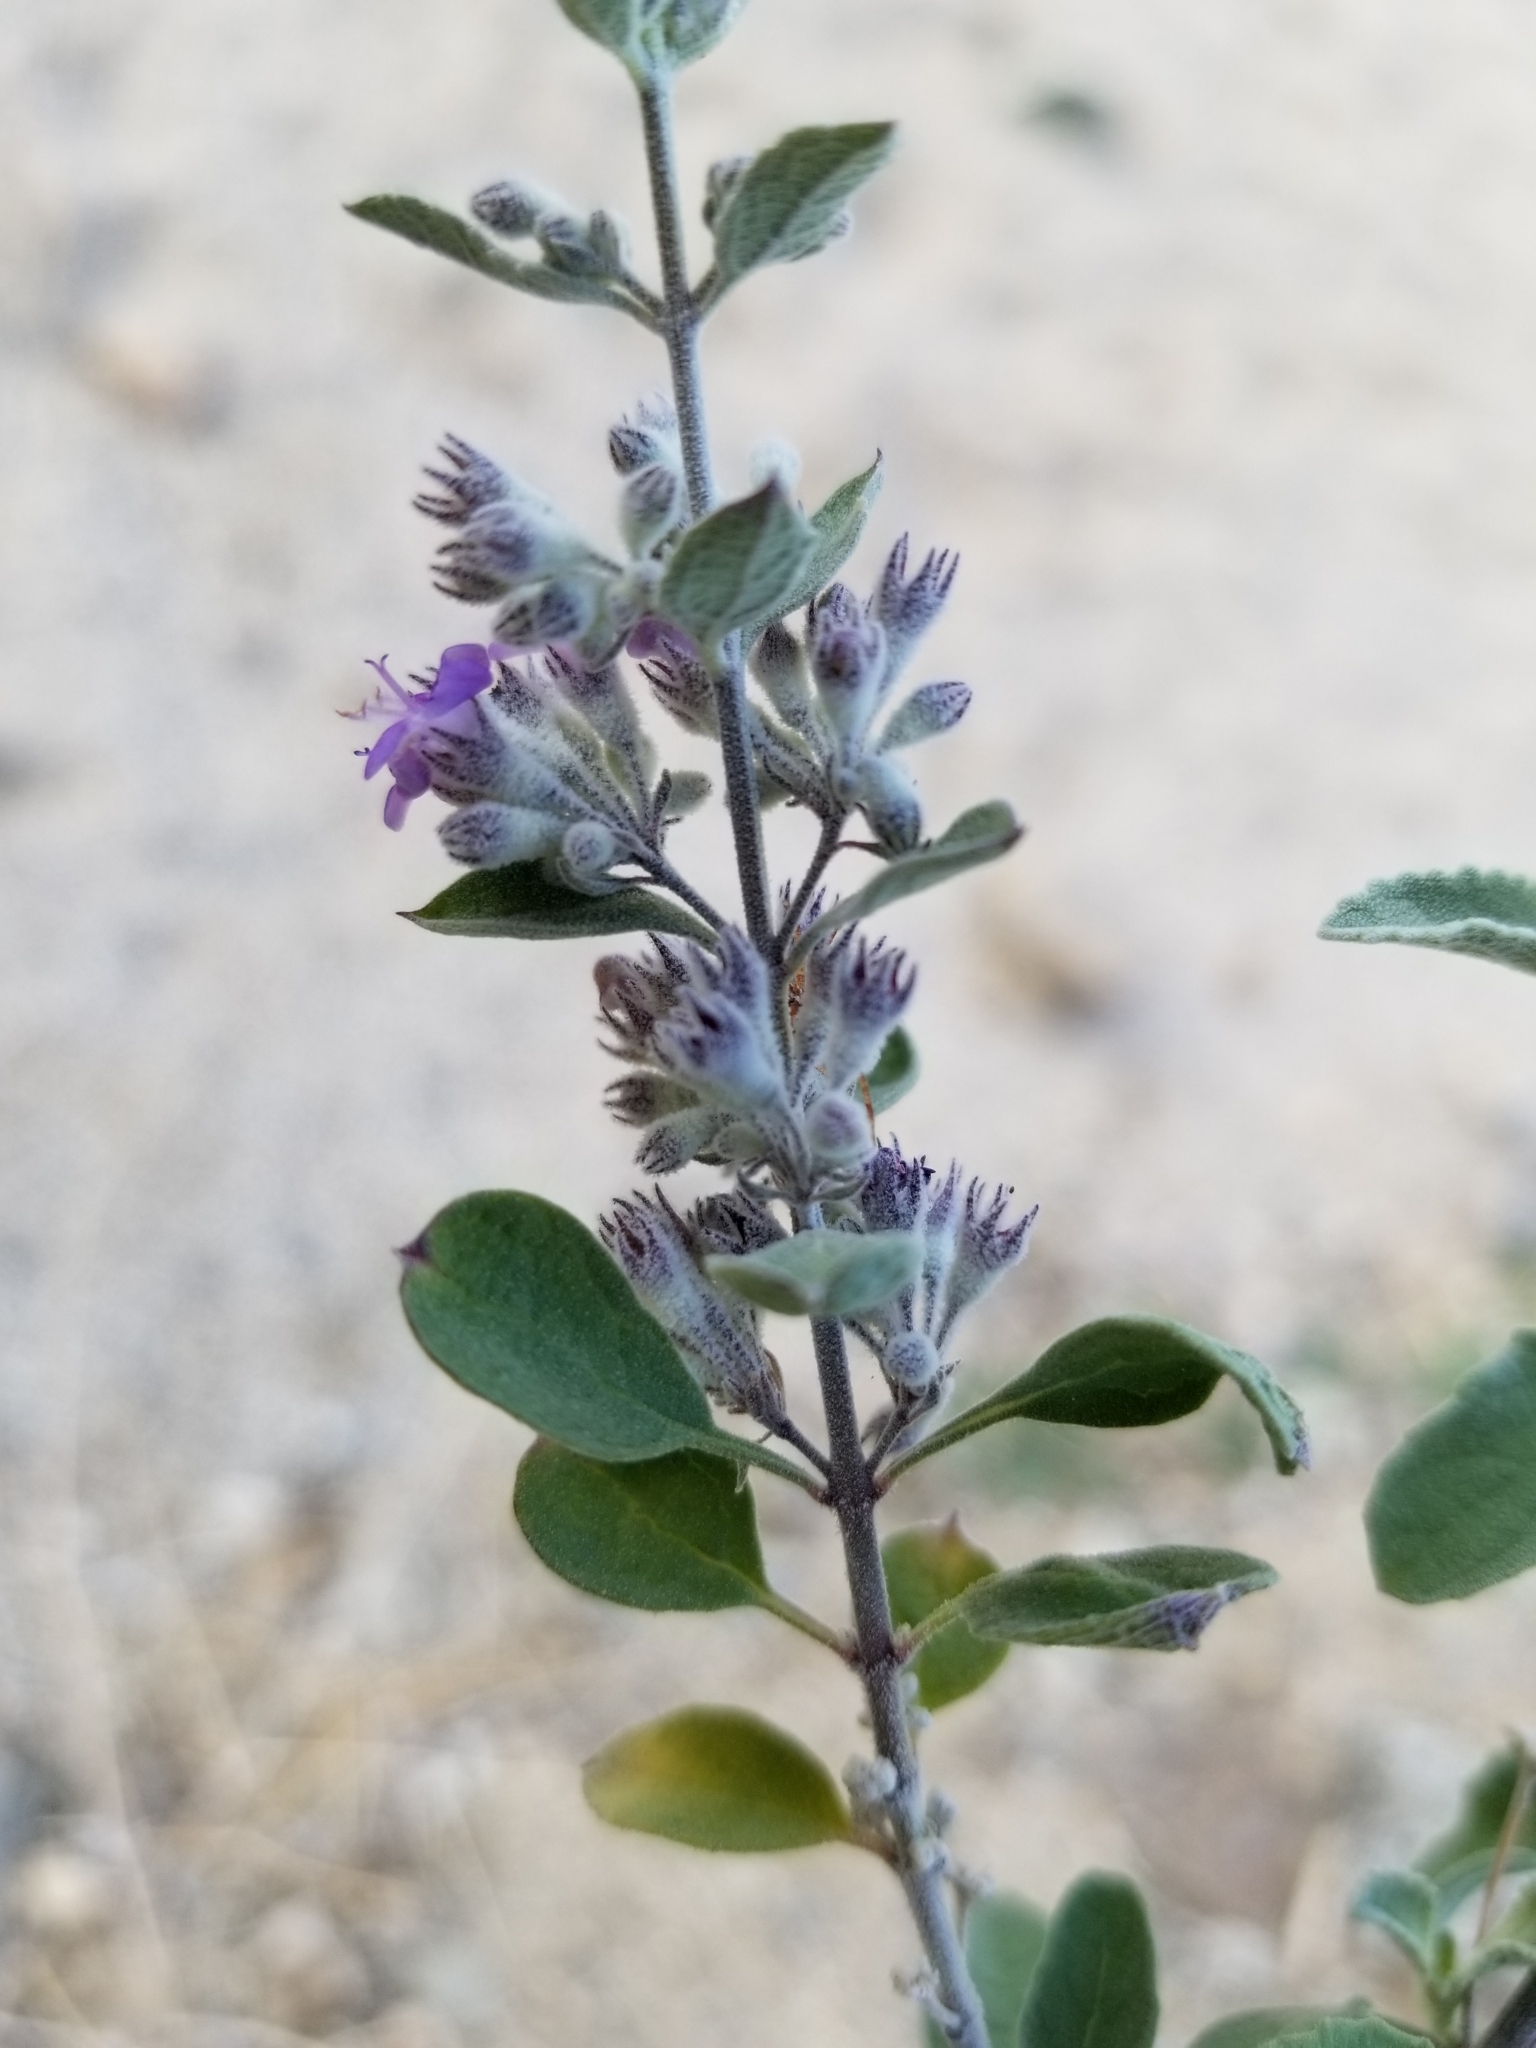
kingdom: Plantae
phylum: Tracheophyta
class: Magnoliopsida
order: Lamiales
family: Lamiaceae
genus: Condea
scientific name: Condea emoryi
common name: Chia
